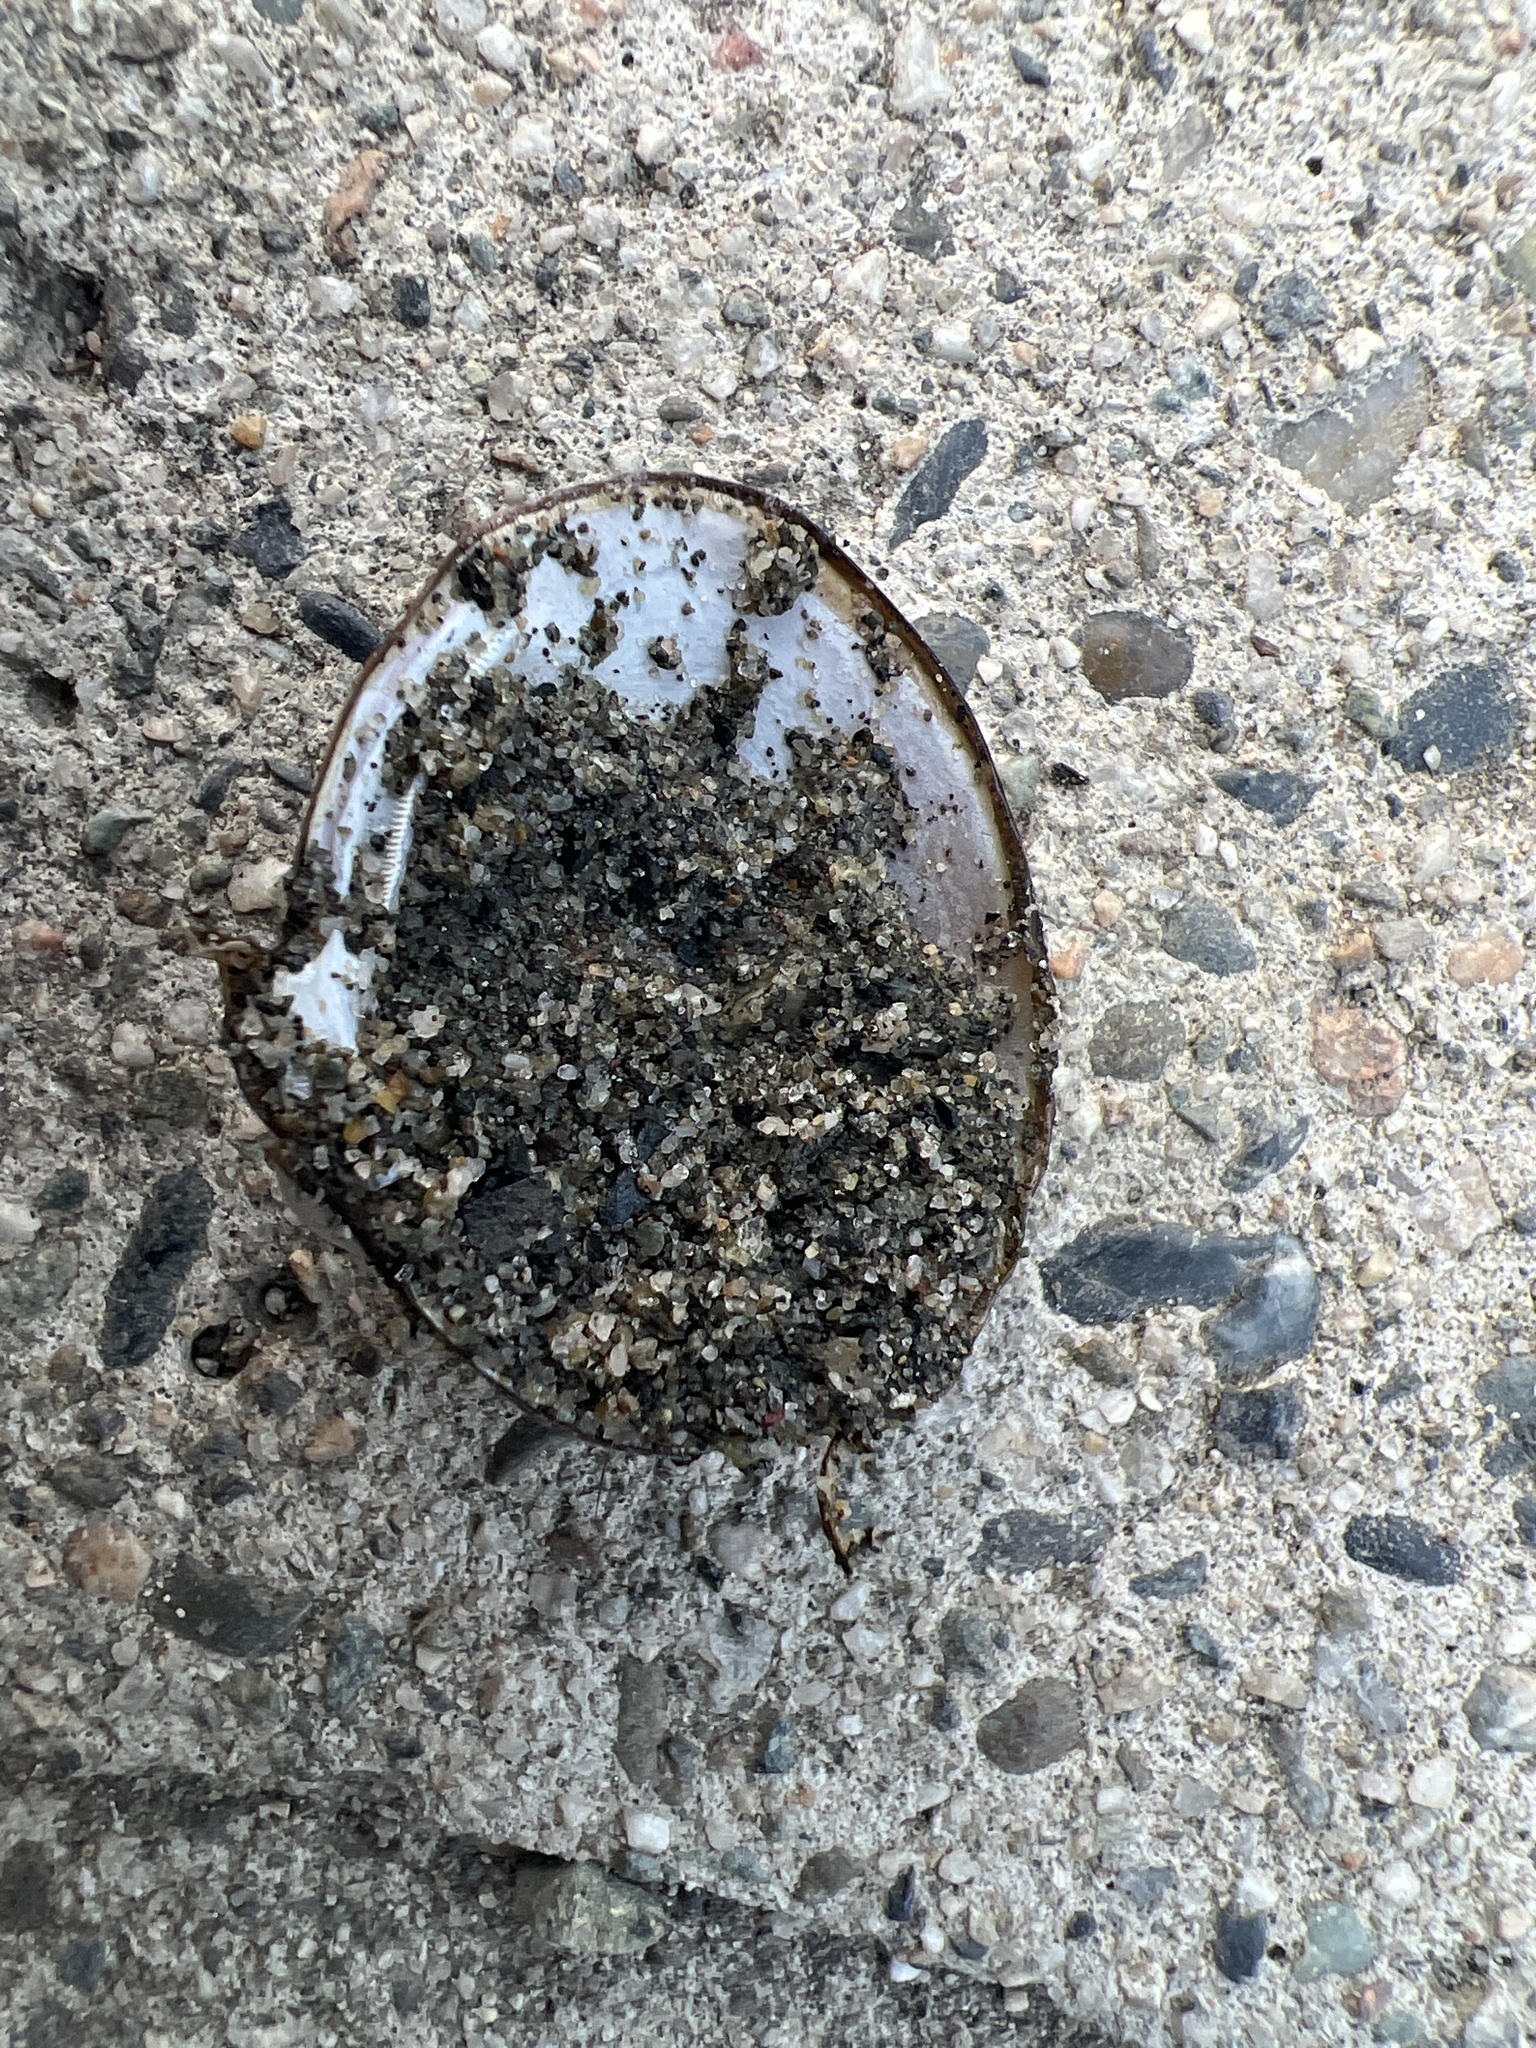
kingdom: Animalia
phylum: Mollusca
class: Bivalvia
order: Venerida
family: Cyrenidae
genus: Corbicula
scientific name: Corbicula fluminea
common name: Asian clam
